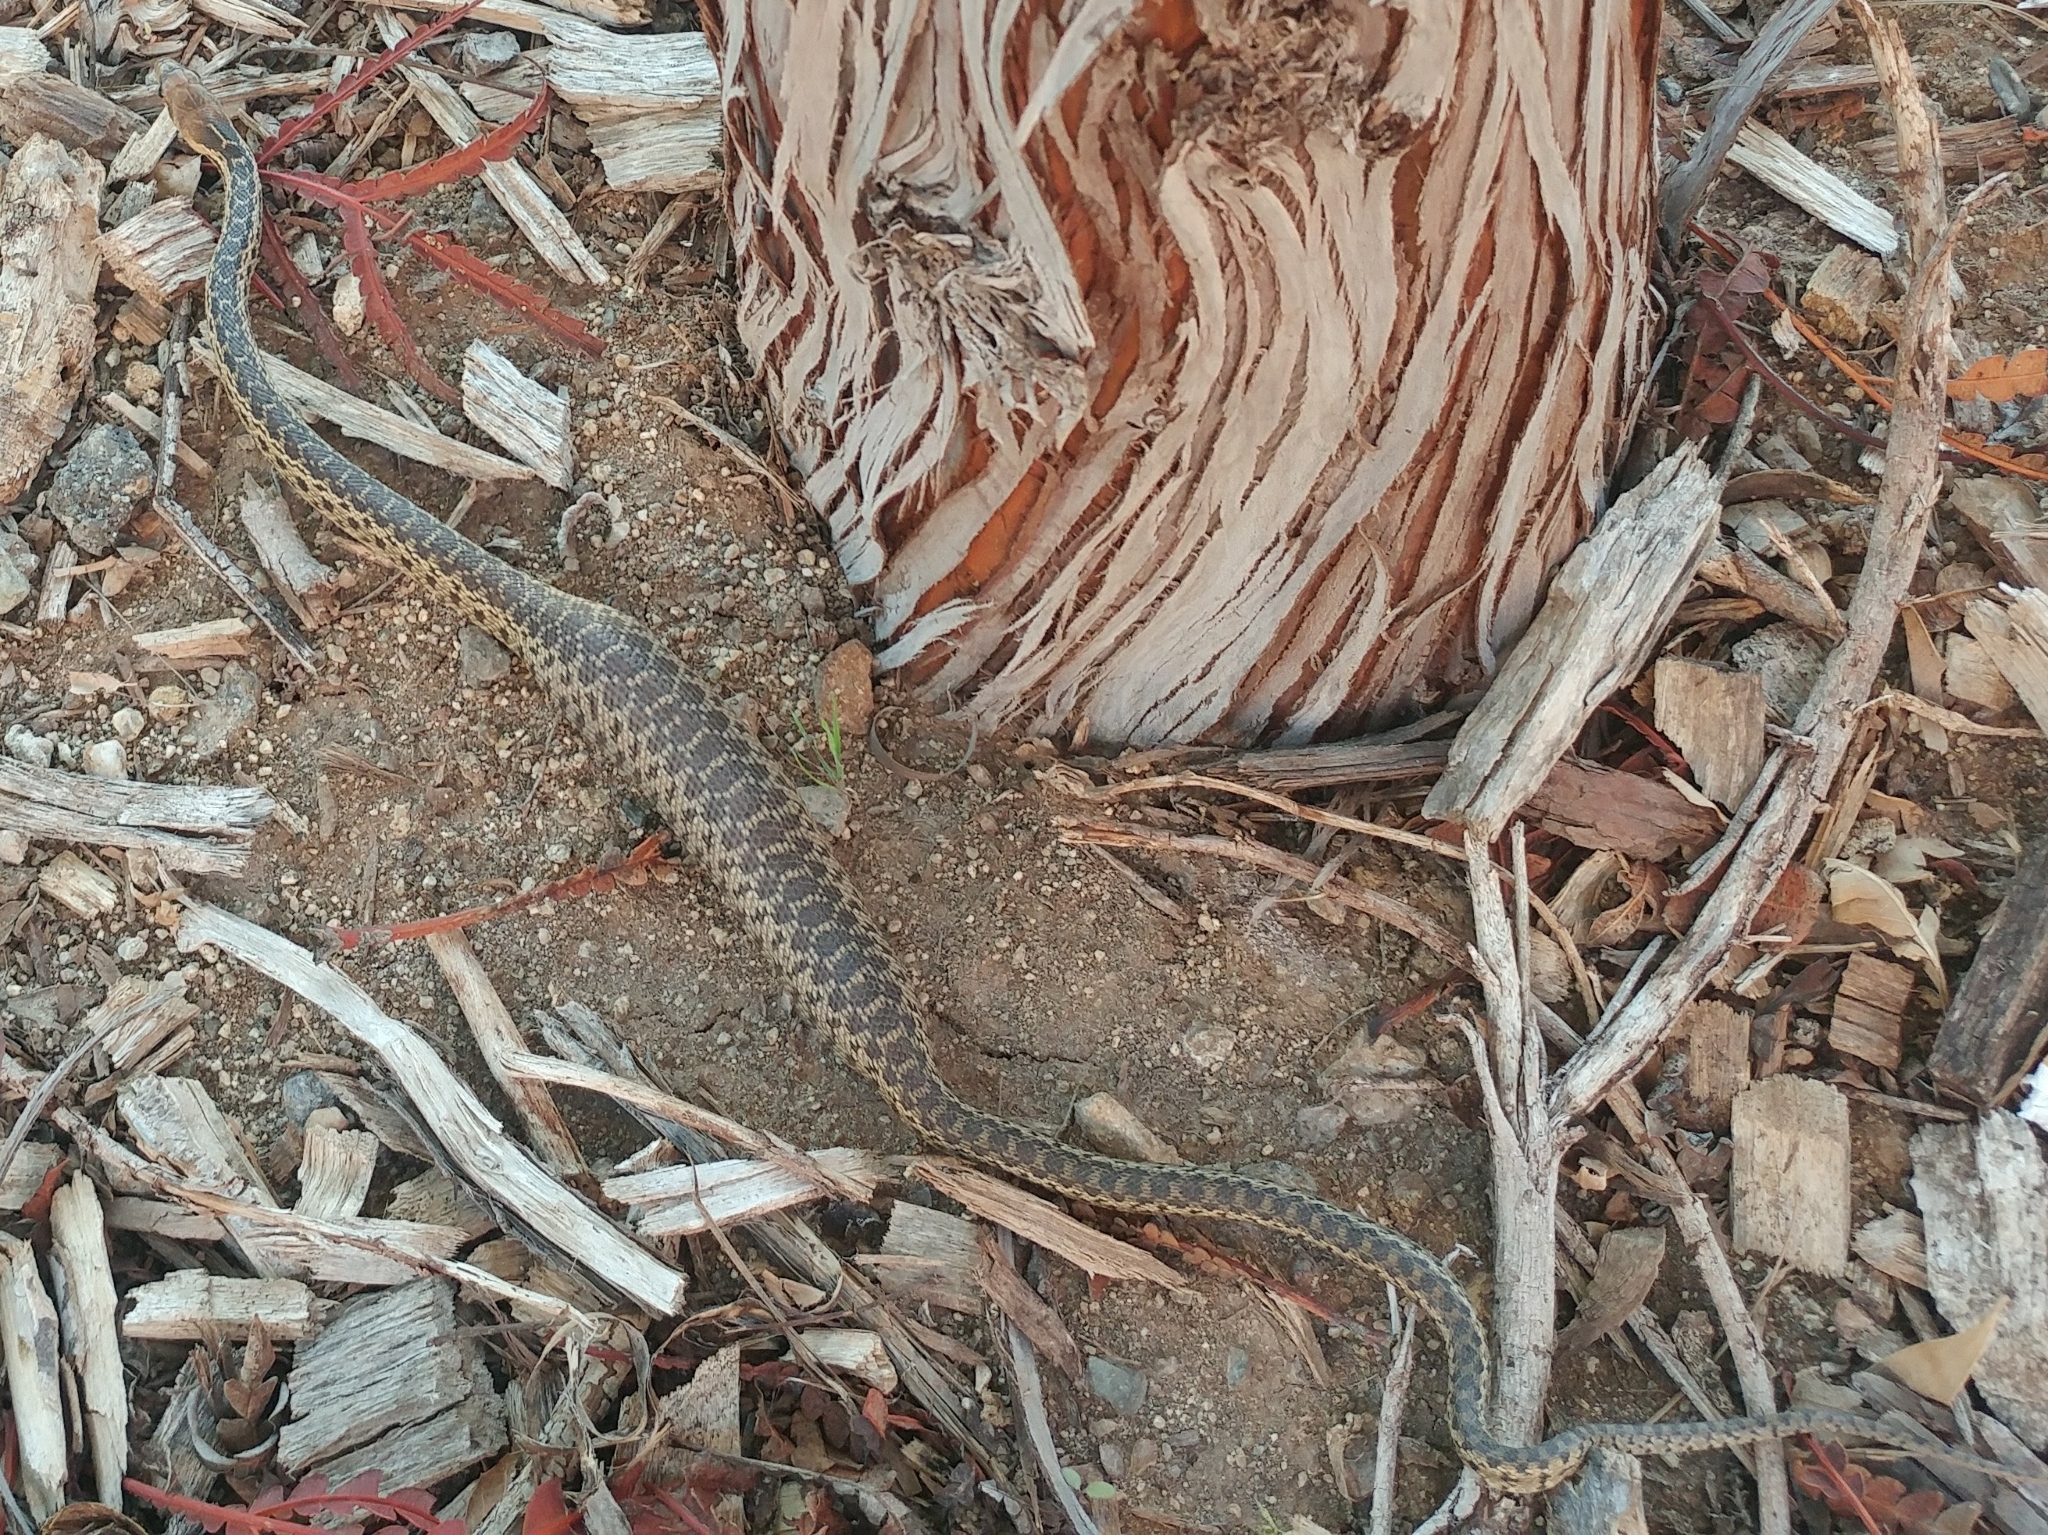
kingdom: Animalia
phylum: Chordata
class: Squamata
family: Colubridae
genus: Pituophis
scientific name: Pituophis catenifer
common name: Gopher snake
